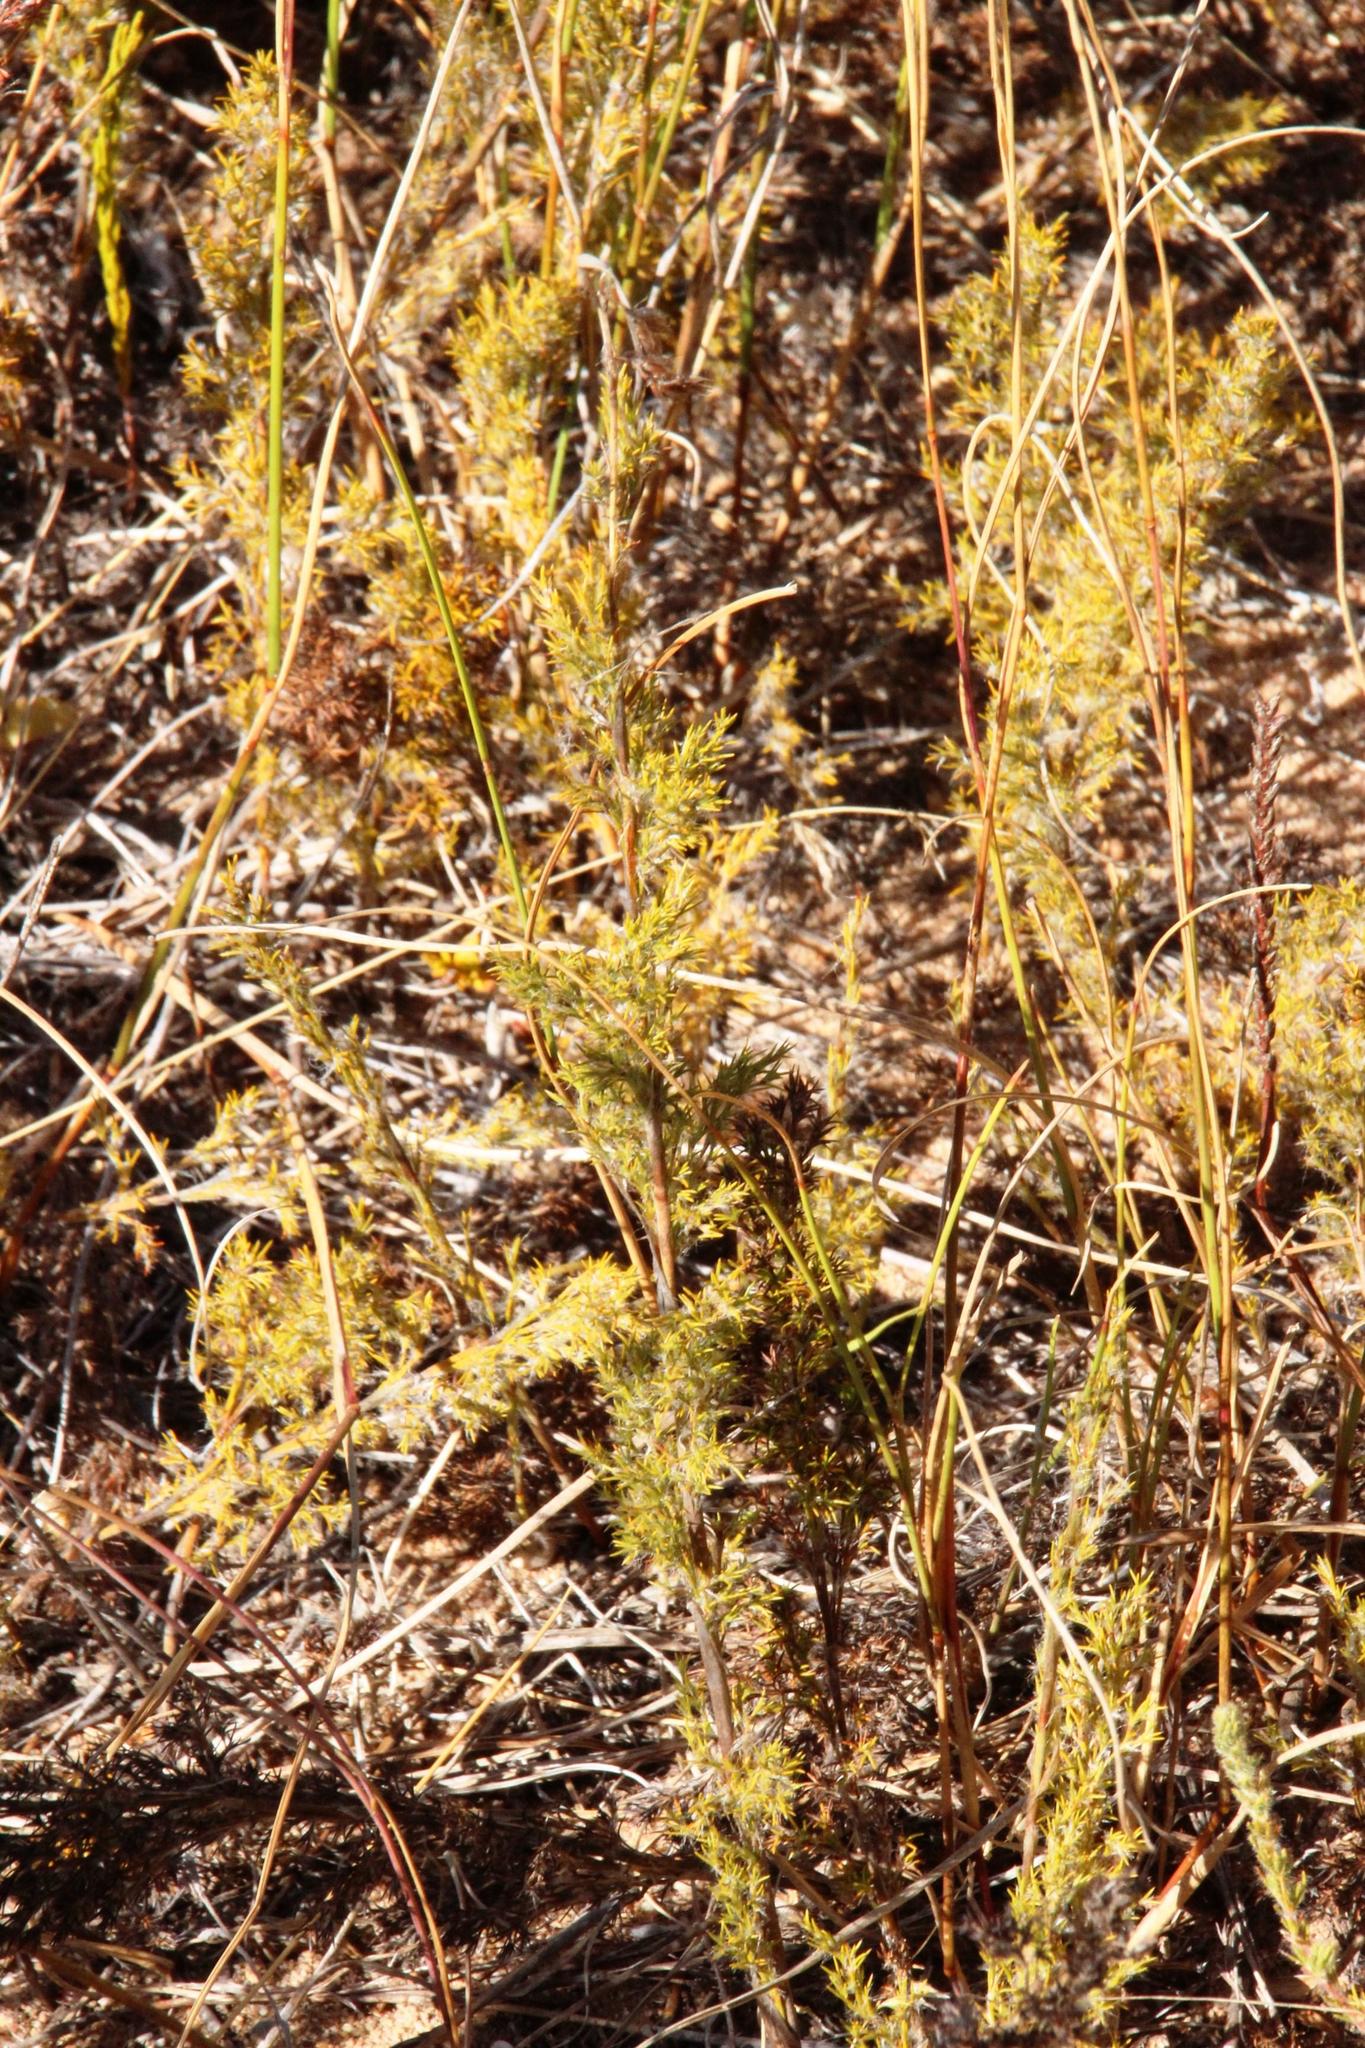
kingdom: Plantae
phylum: Tracheophyta
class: Liliopsida
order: Poales
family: Restionaceae
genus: Thamnochortus
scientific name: Thamnochortus fruticosus
